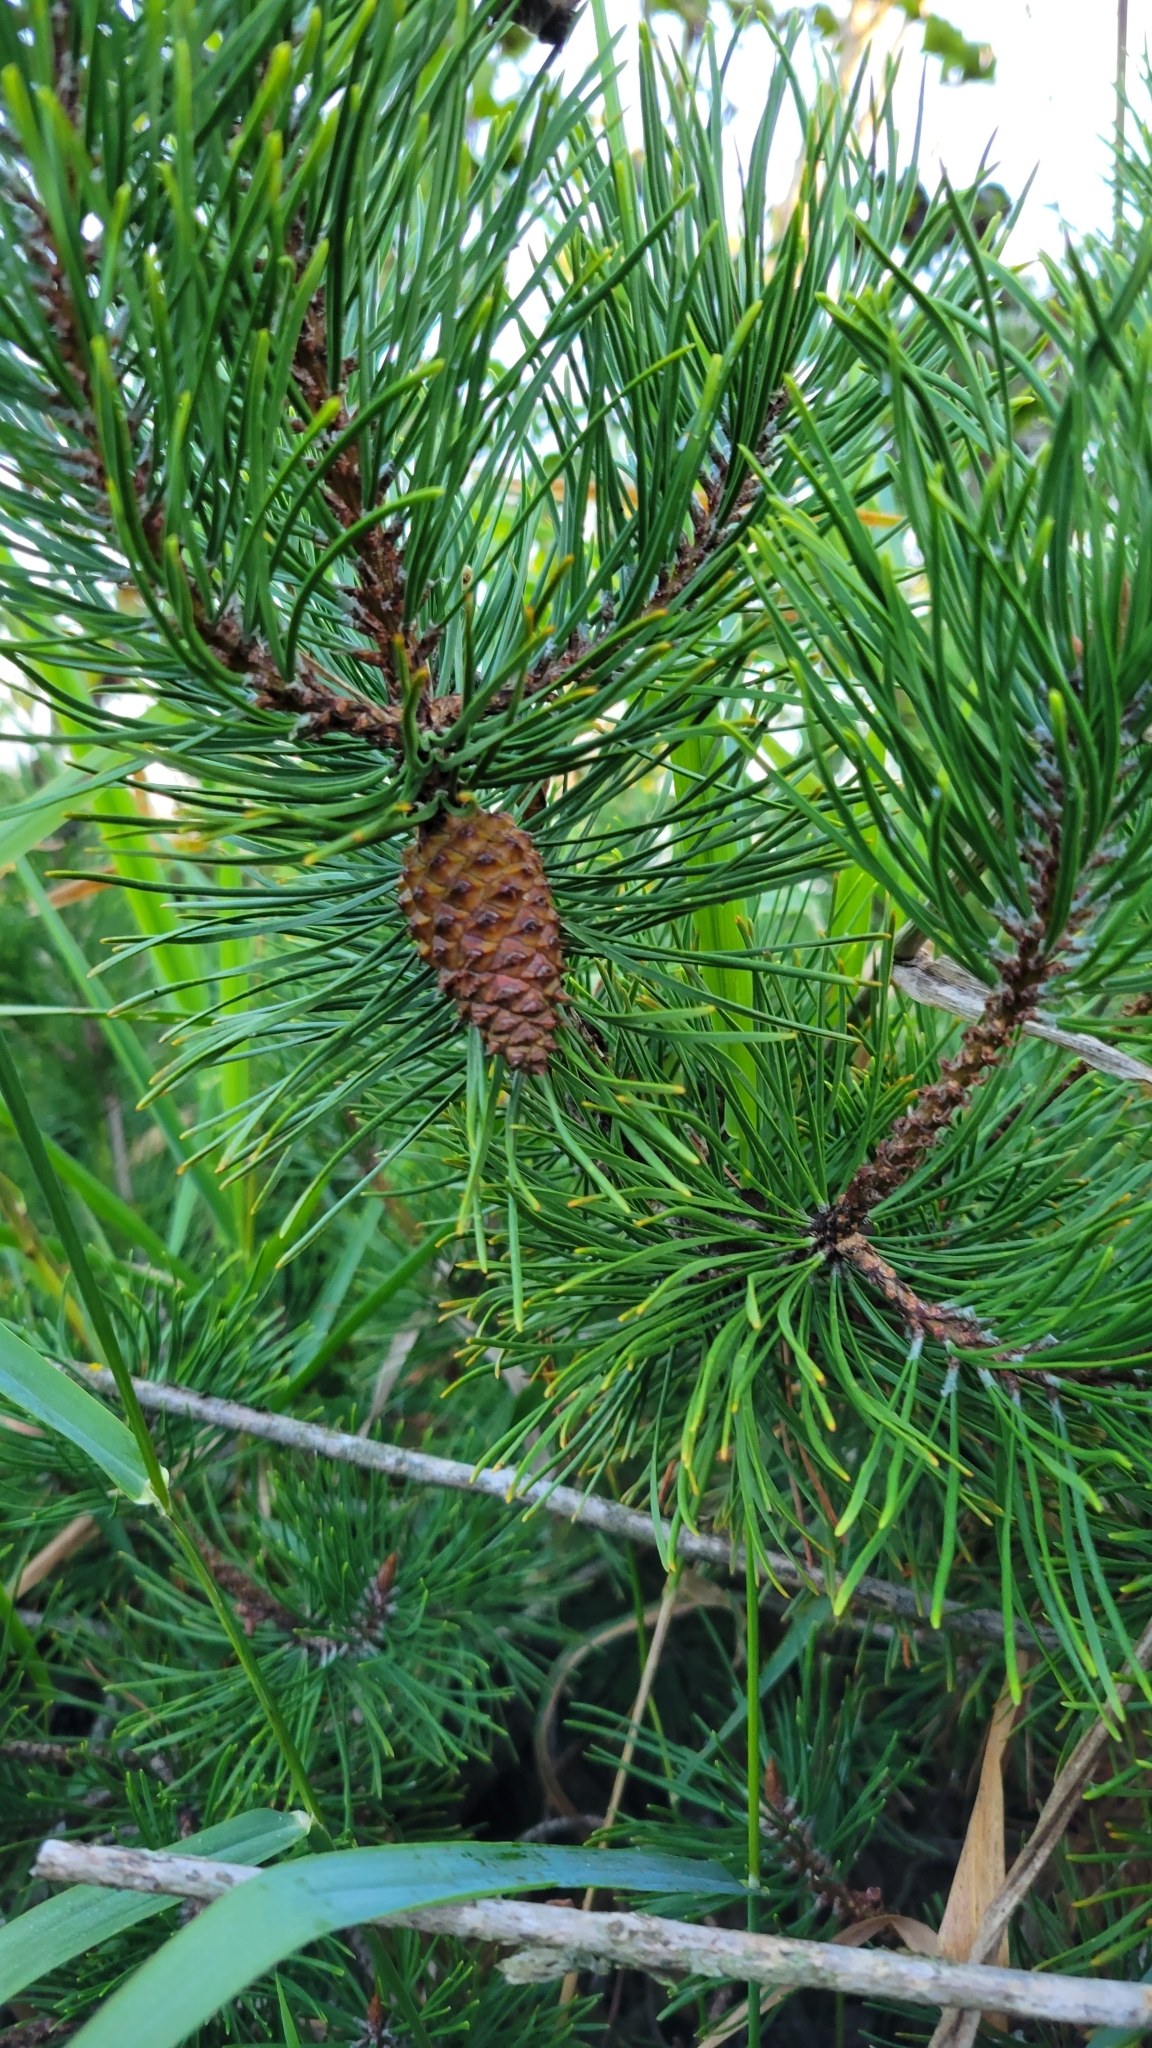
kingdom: Plantae
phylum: Tracheophyta
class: Pinopsida
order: Pinales
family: Pinaceae
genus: Pinus
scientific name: Pinus contorta
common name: Lodgepole pine
